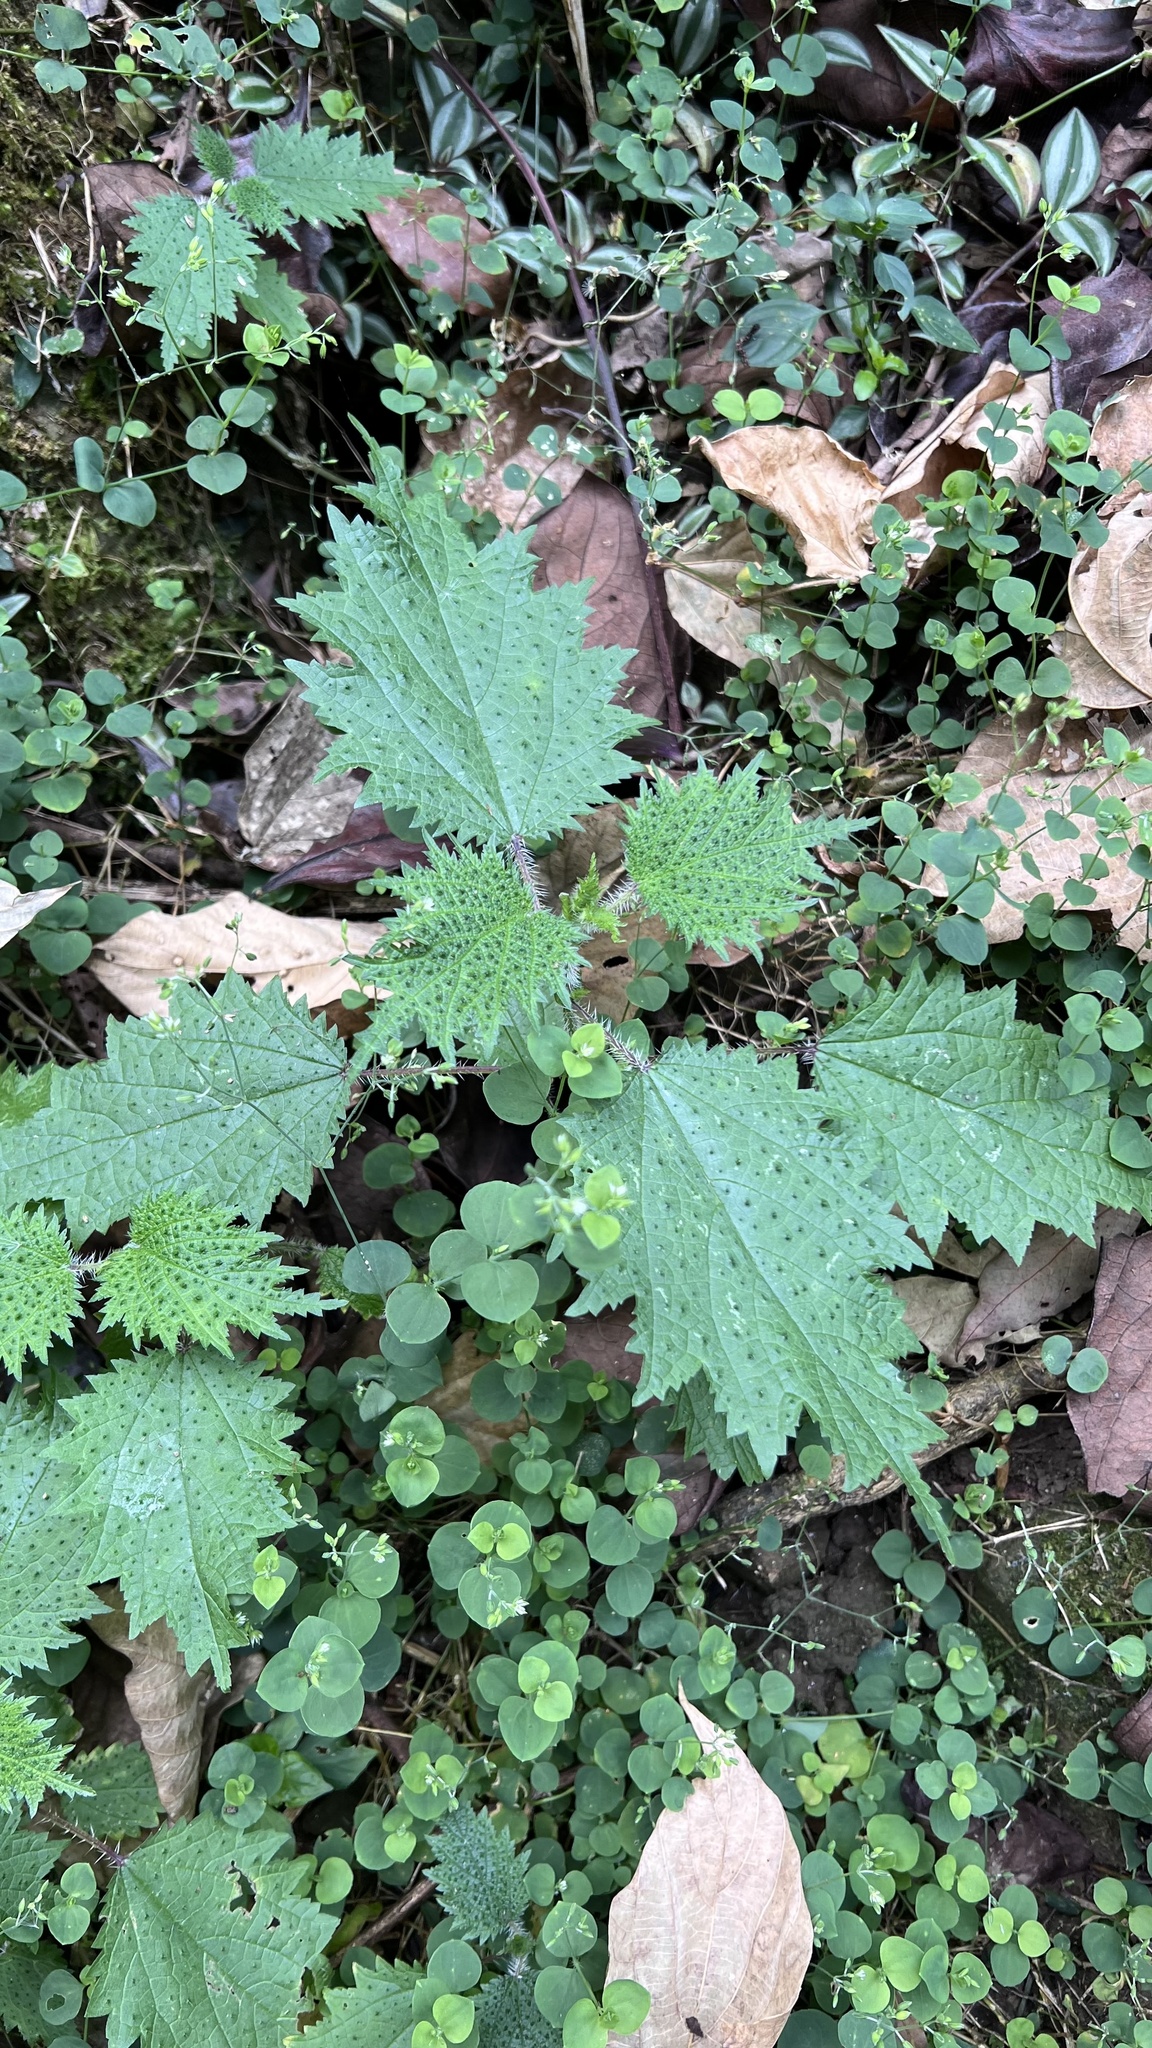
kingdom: Plantae
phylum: Tracheophyta
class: Magnoliopsida
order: Rosales
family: Urticaceae
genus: Urtica
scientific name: Urtica thunbergiana
